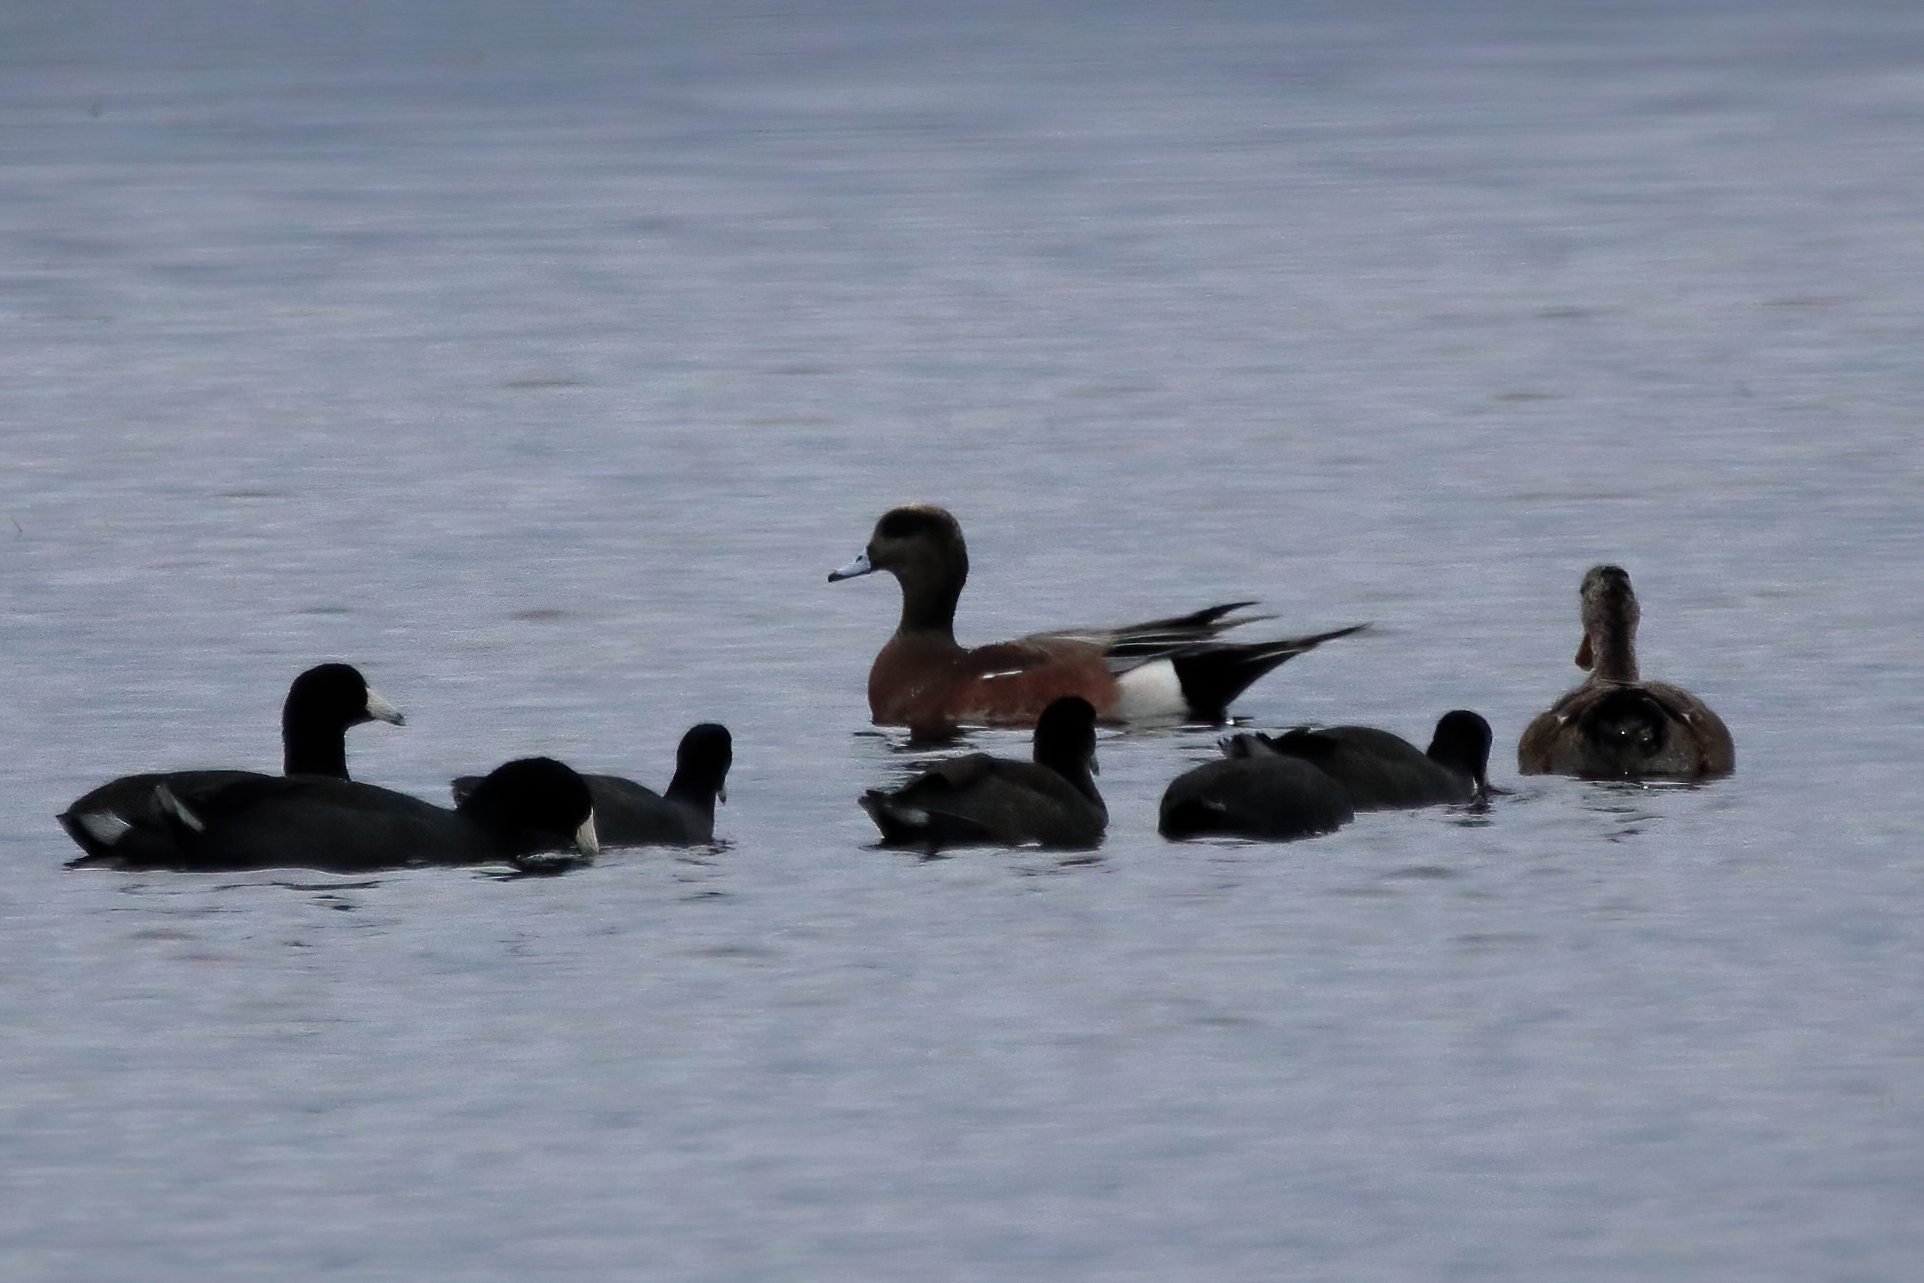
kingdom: Animalia
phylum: Chordata
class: Aves
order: Anseriformes
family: Anatidae
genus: Mareca
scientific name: Mareca americana
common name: American wigeon
